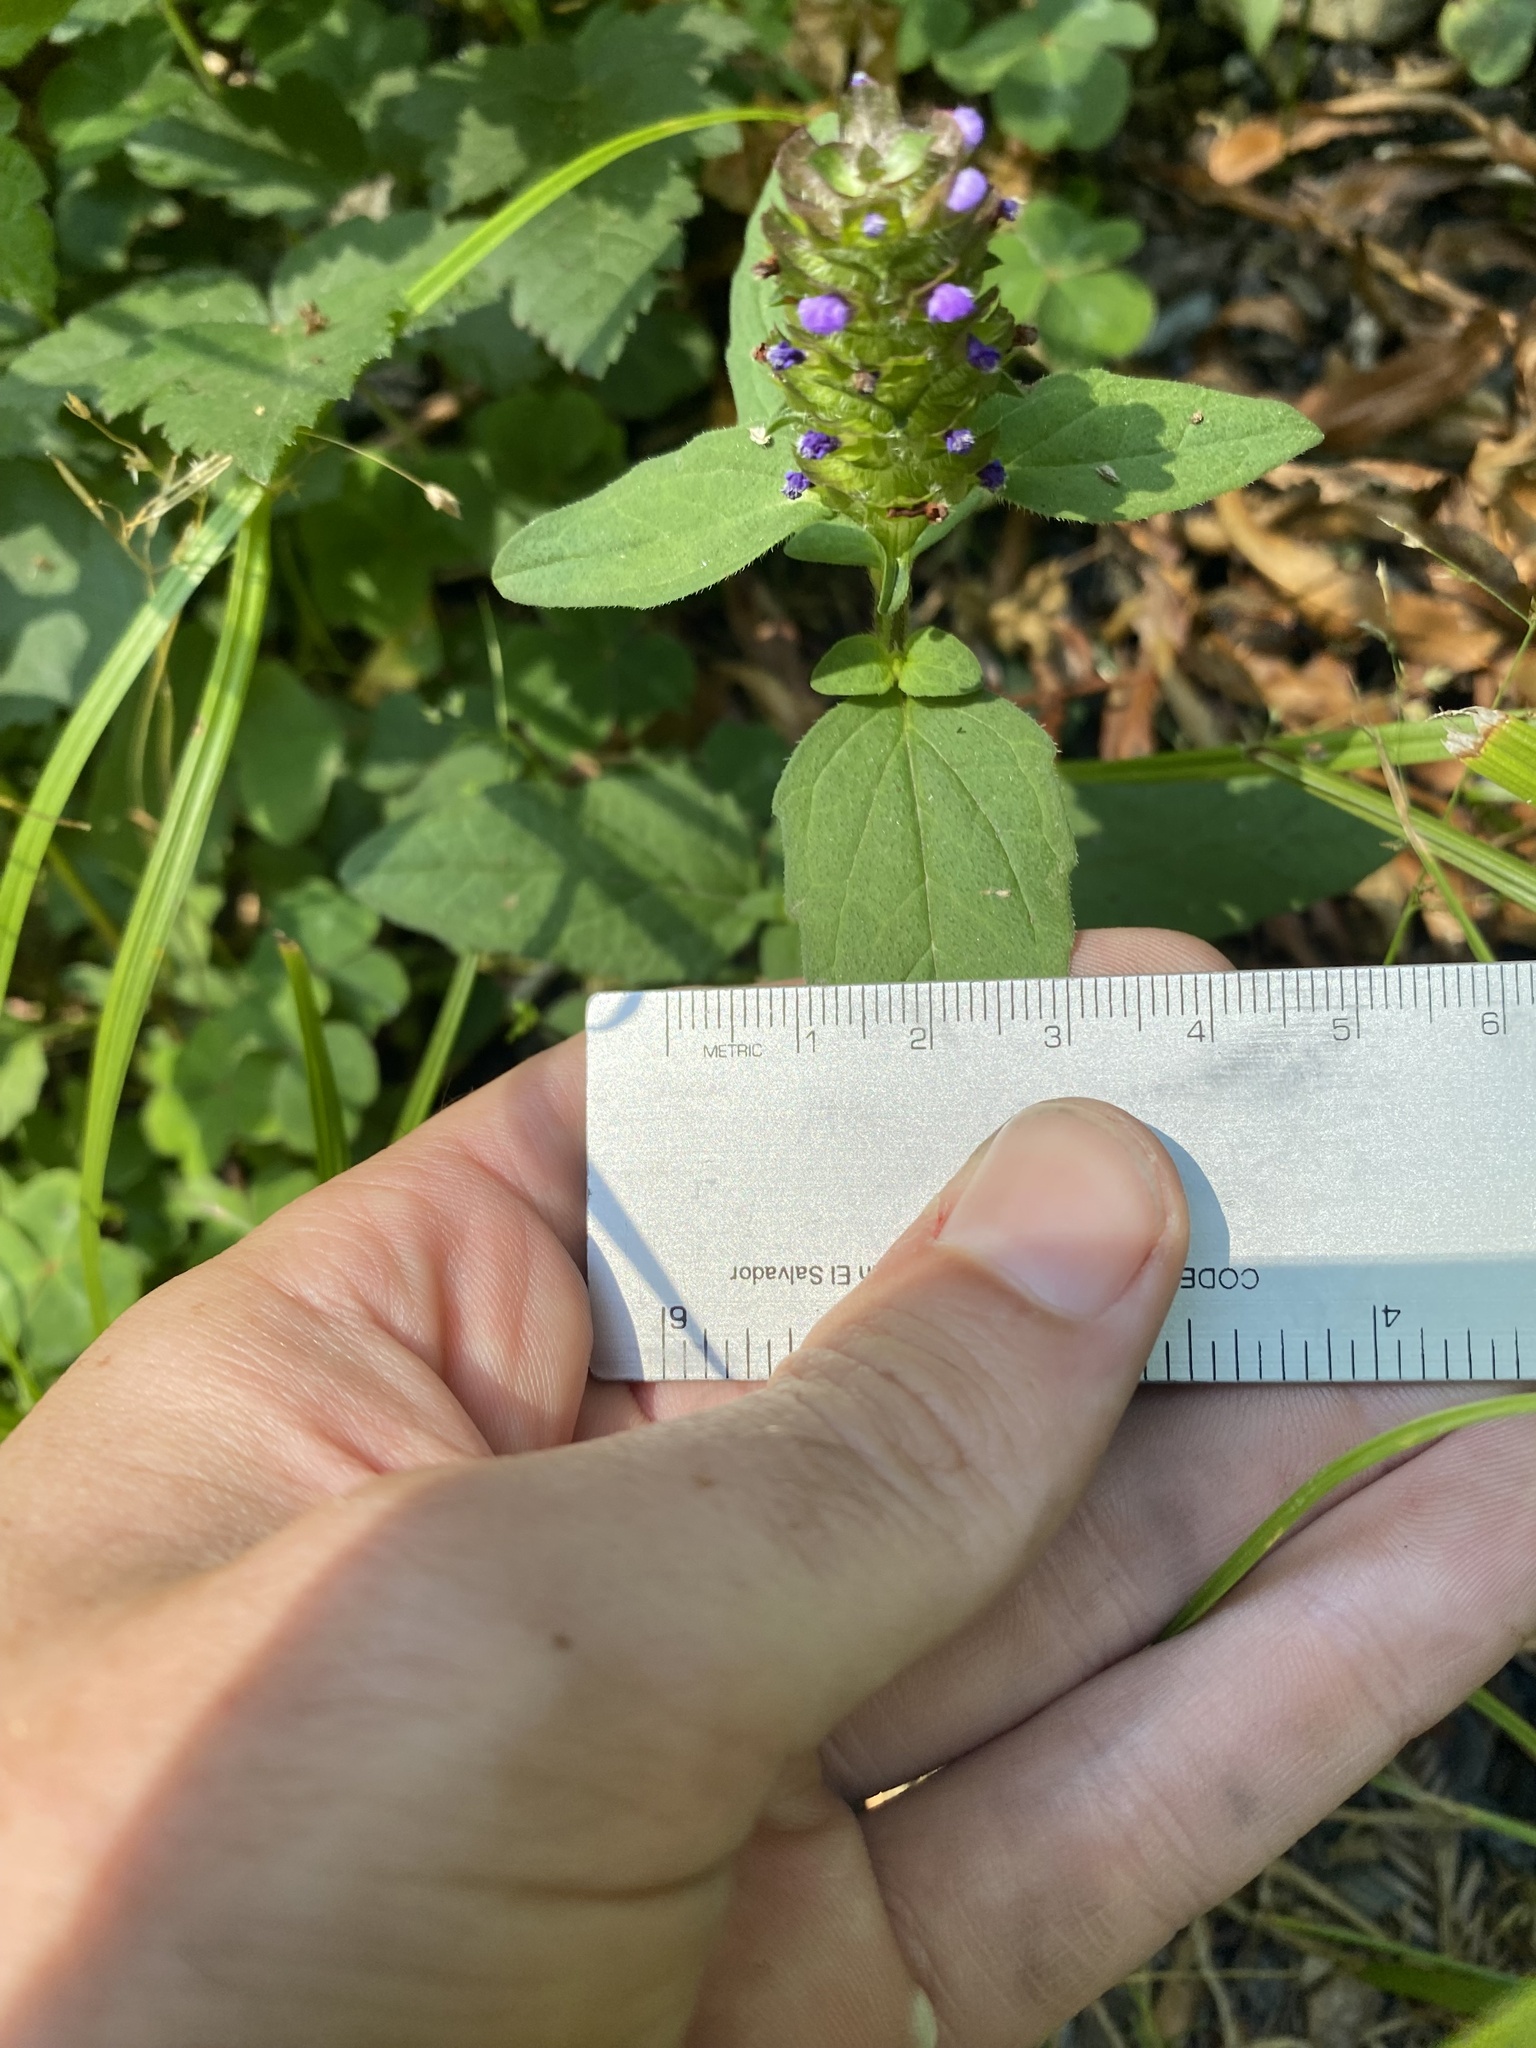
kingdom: Plantae
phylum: Tracheophyta
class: Magnoliopsida
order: Lamiales
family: Lamiaceae
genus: Prunella
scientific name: Prunella vulgaris
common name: Heal-all
